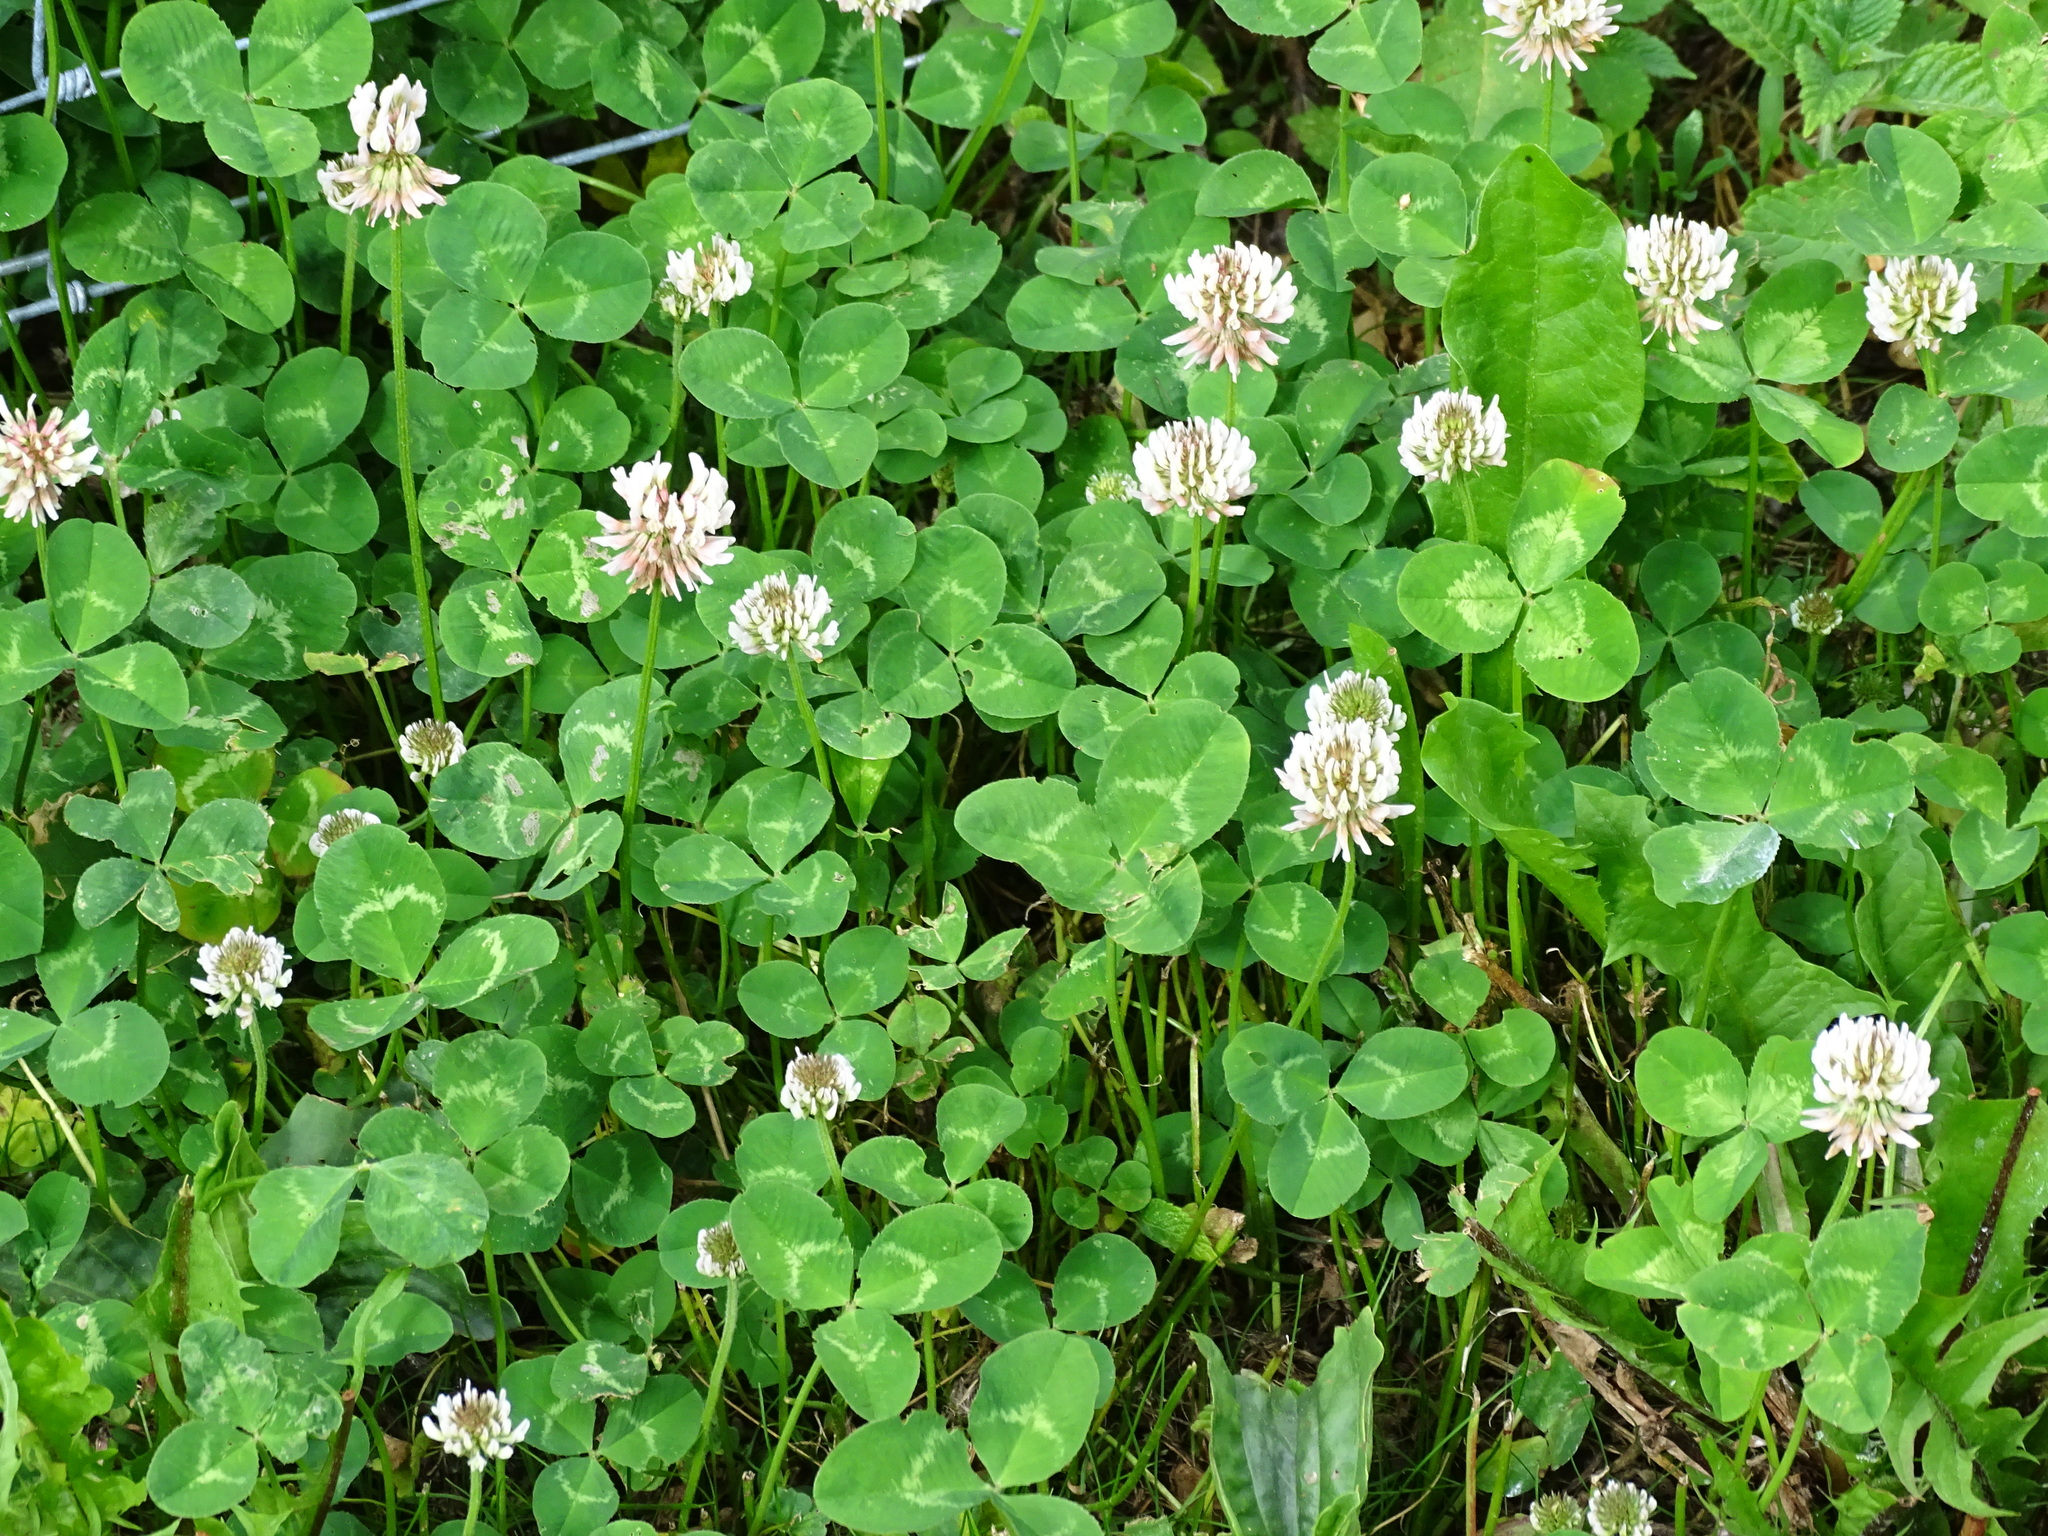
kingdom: Plantae
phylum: Tracheophyta
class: Magnoliopsida
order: Fabales
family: Fabaceae
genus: Trifolium
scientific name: Trifolium repens
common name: White clover
